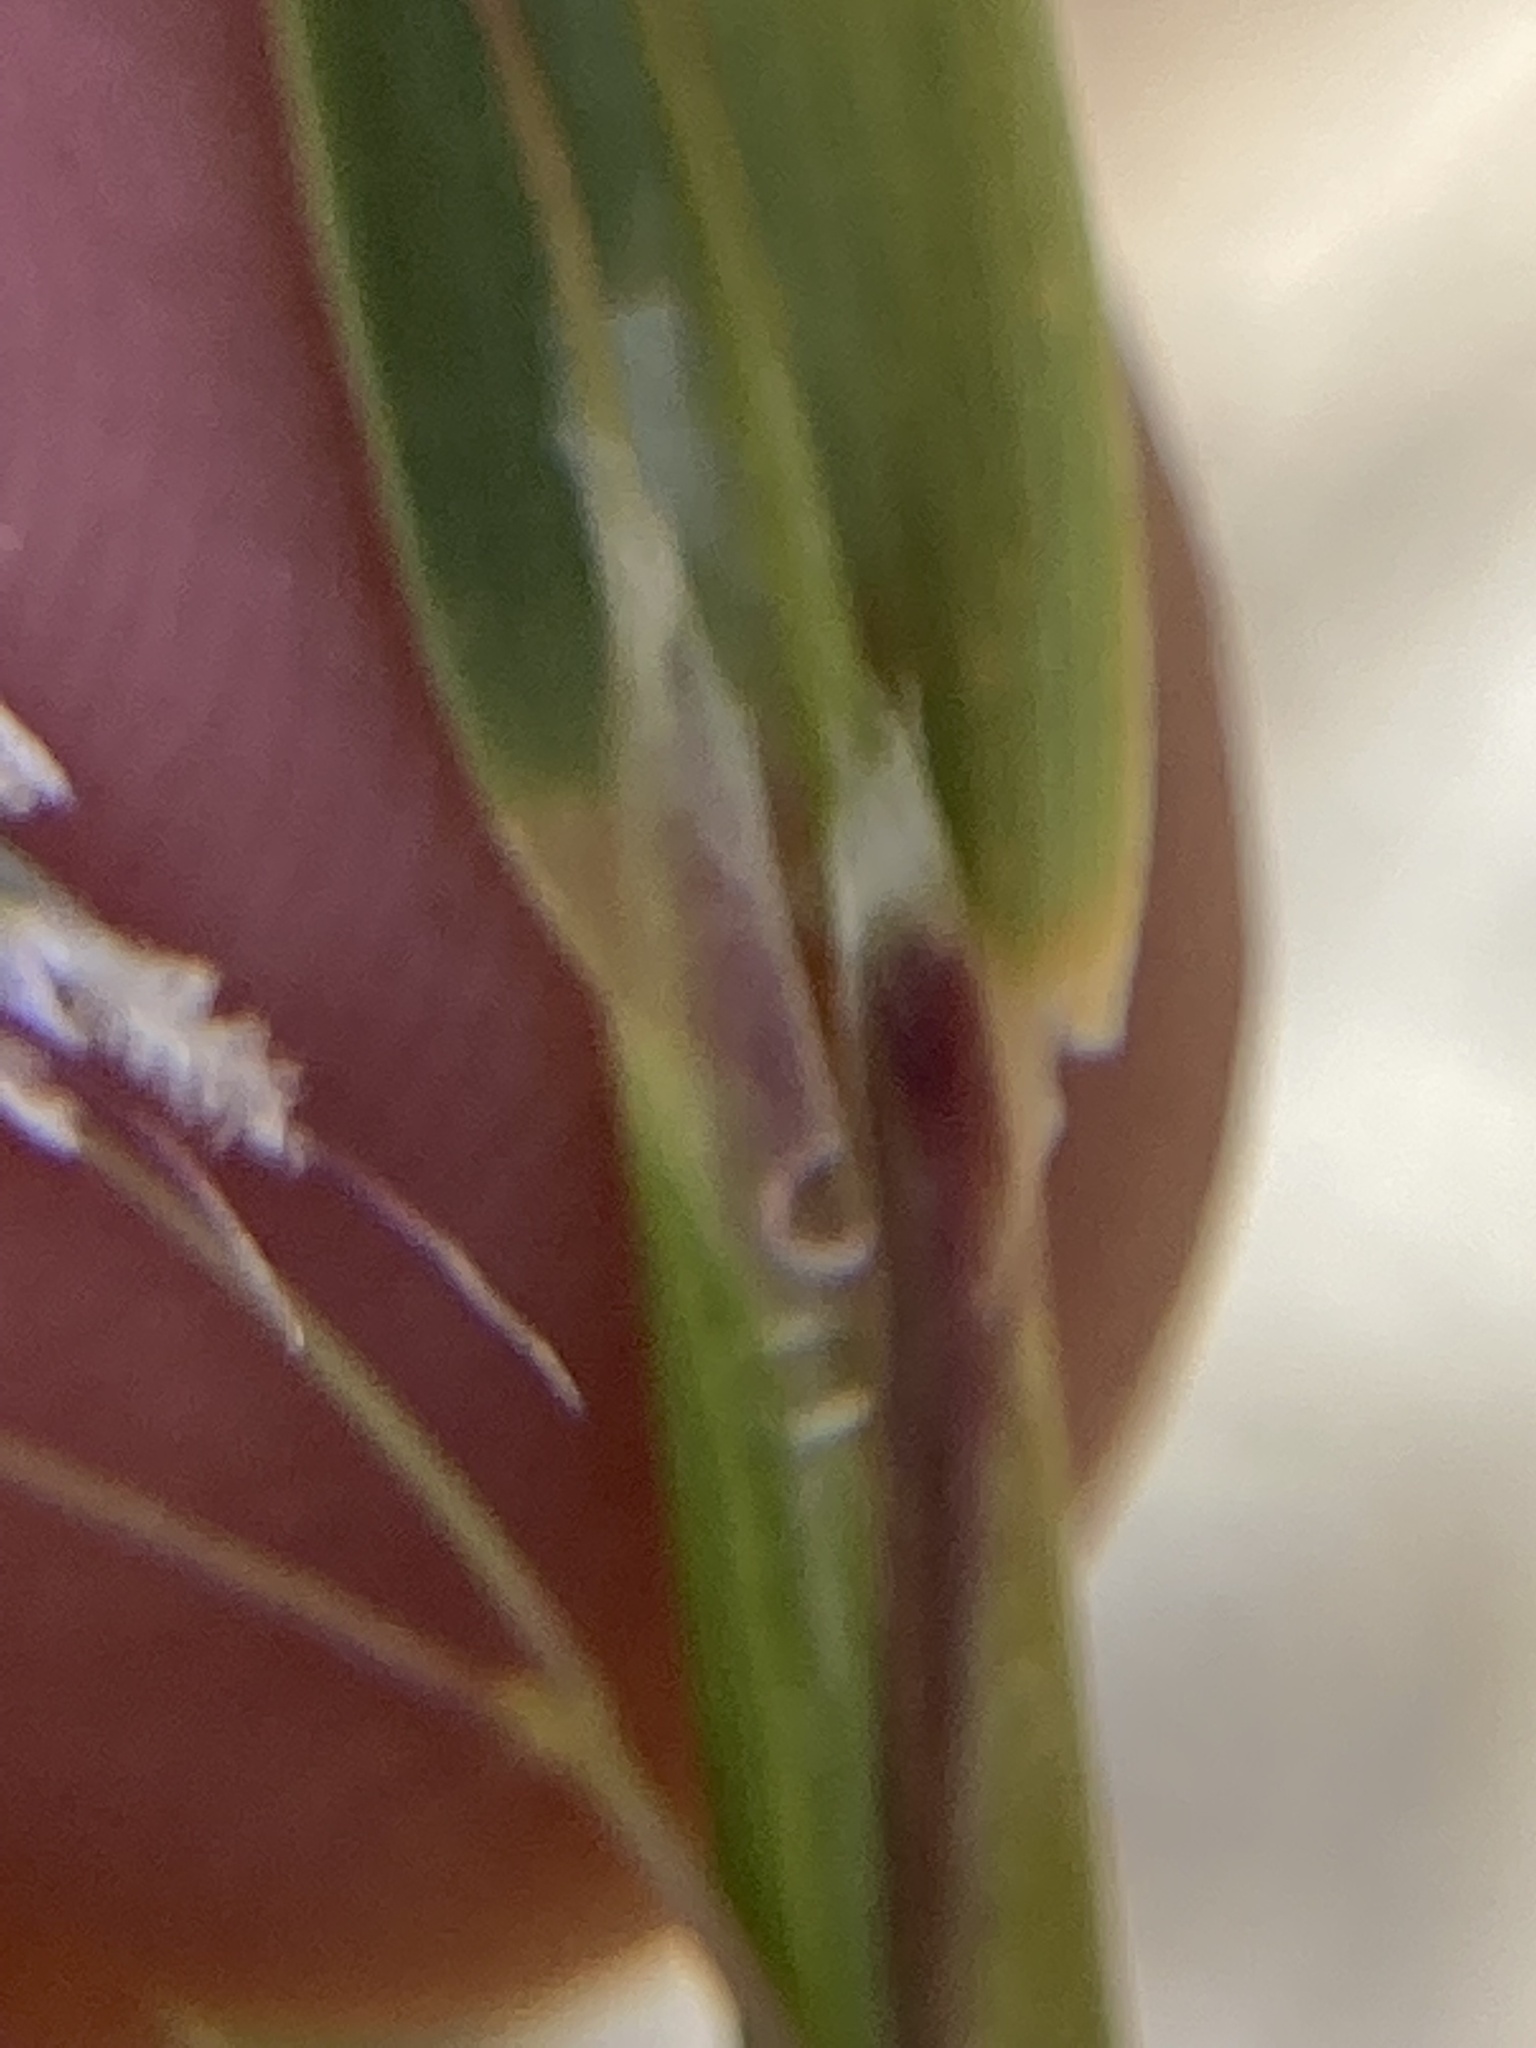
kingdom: Plantae
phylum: Tracheophyta
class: Liliopsida
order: Poales
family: Poaceae
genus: Anthoxanthum
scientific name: Anthoxanthum cupreum
